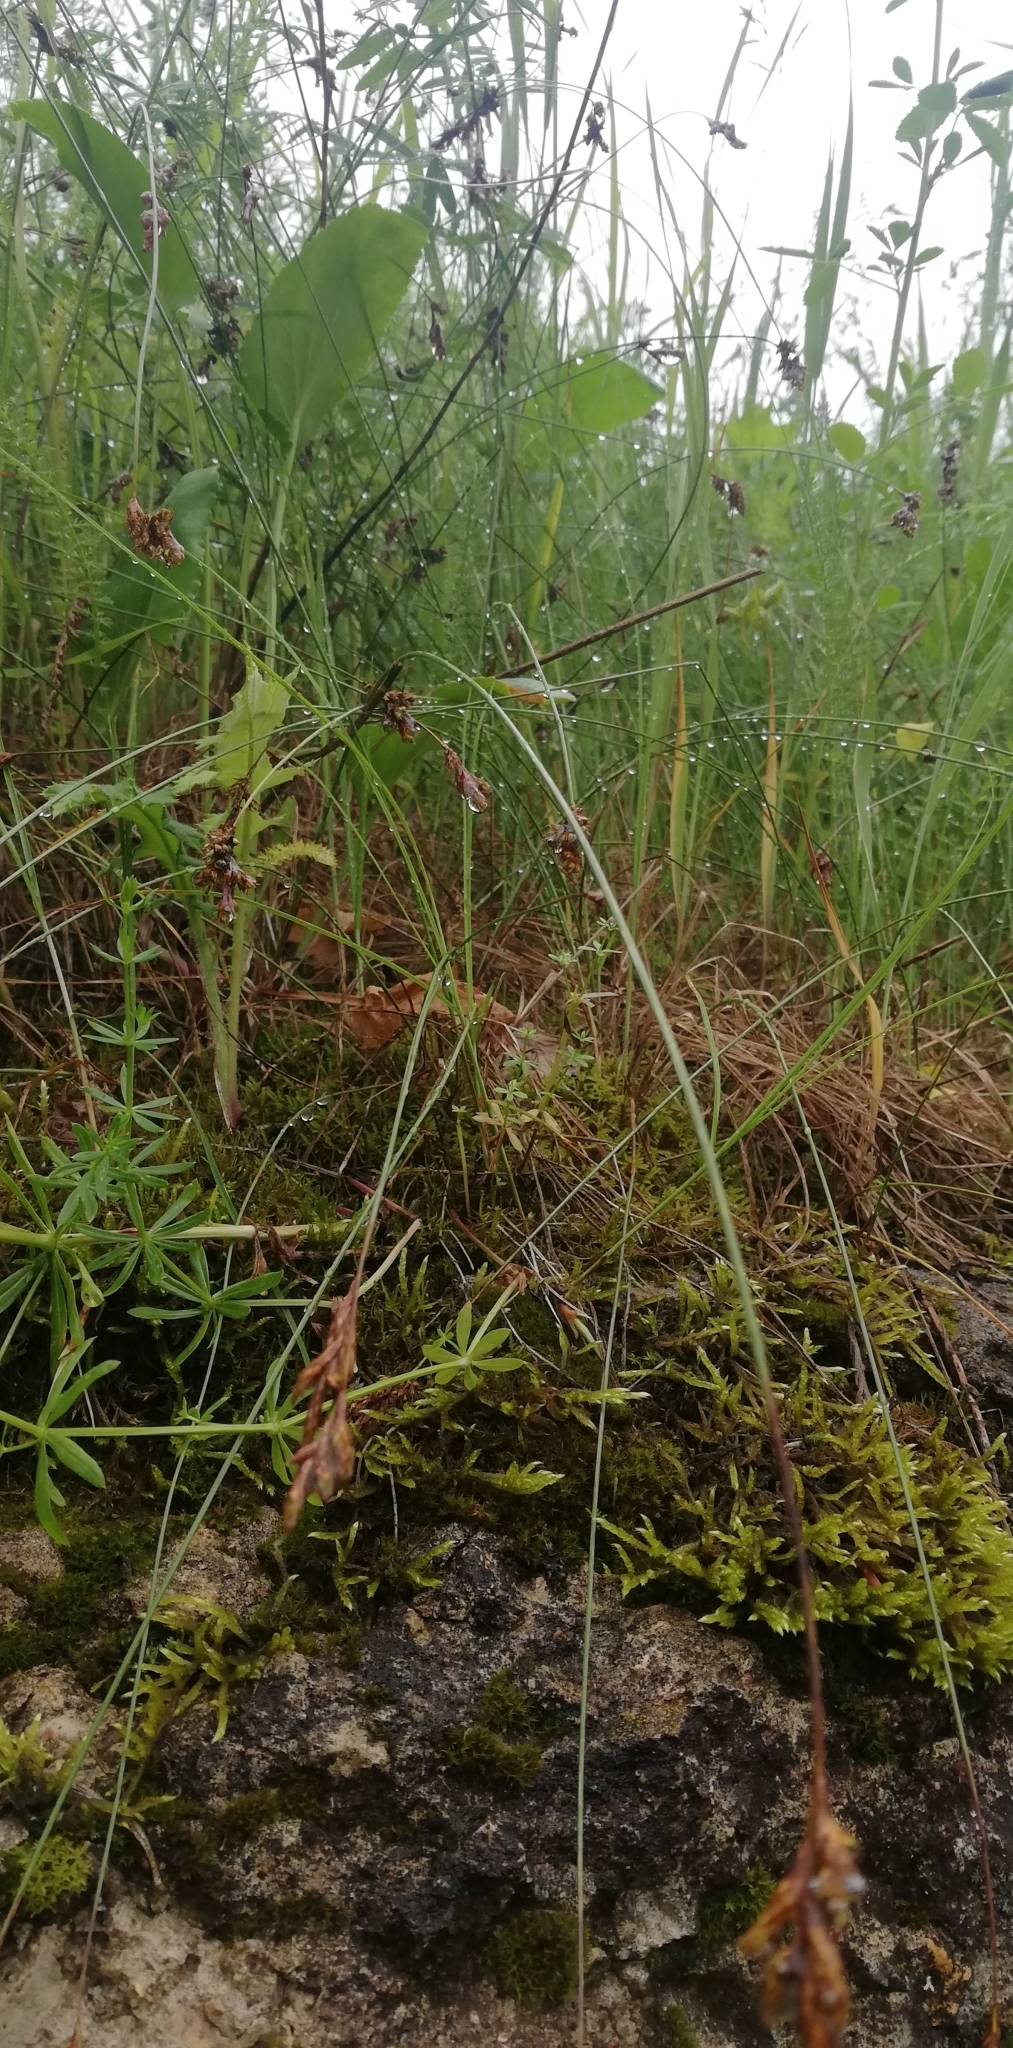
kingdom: Plantae
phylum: Tracheophyta
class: Liliopsida
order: Poales
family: Cyperaceae
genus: Carex
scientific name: Carex praecox
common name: Early sedge
